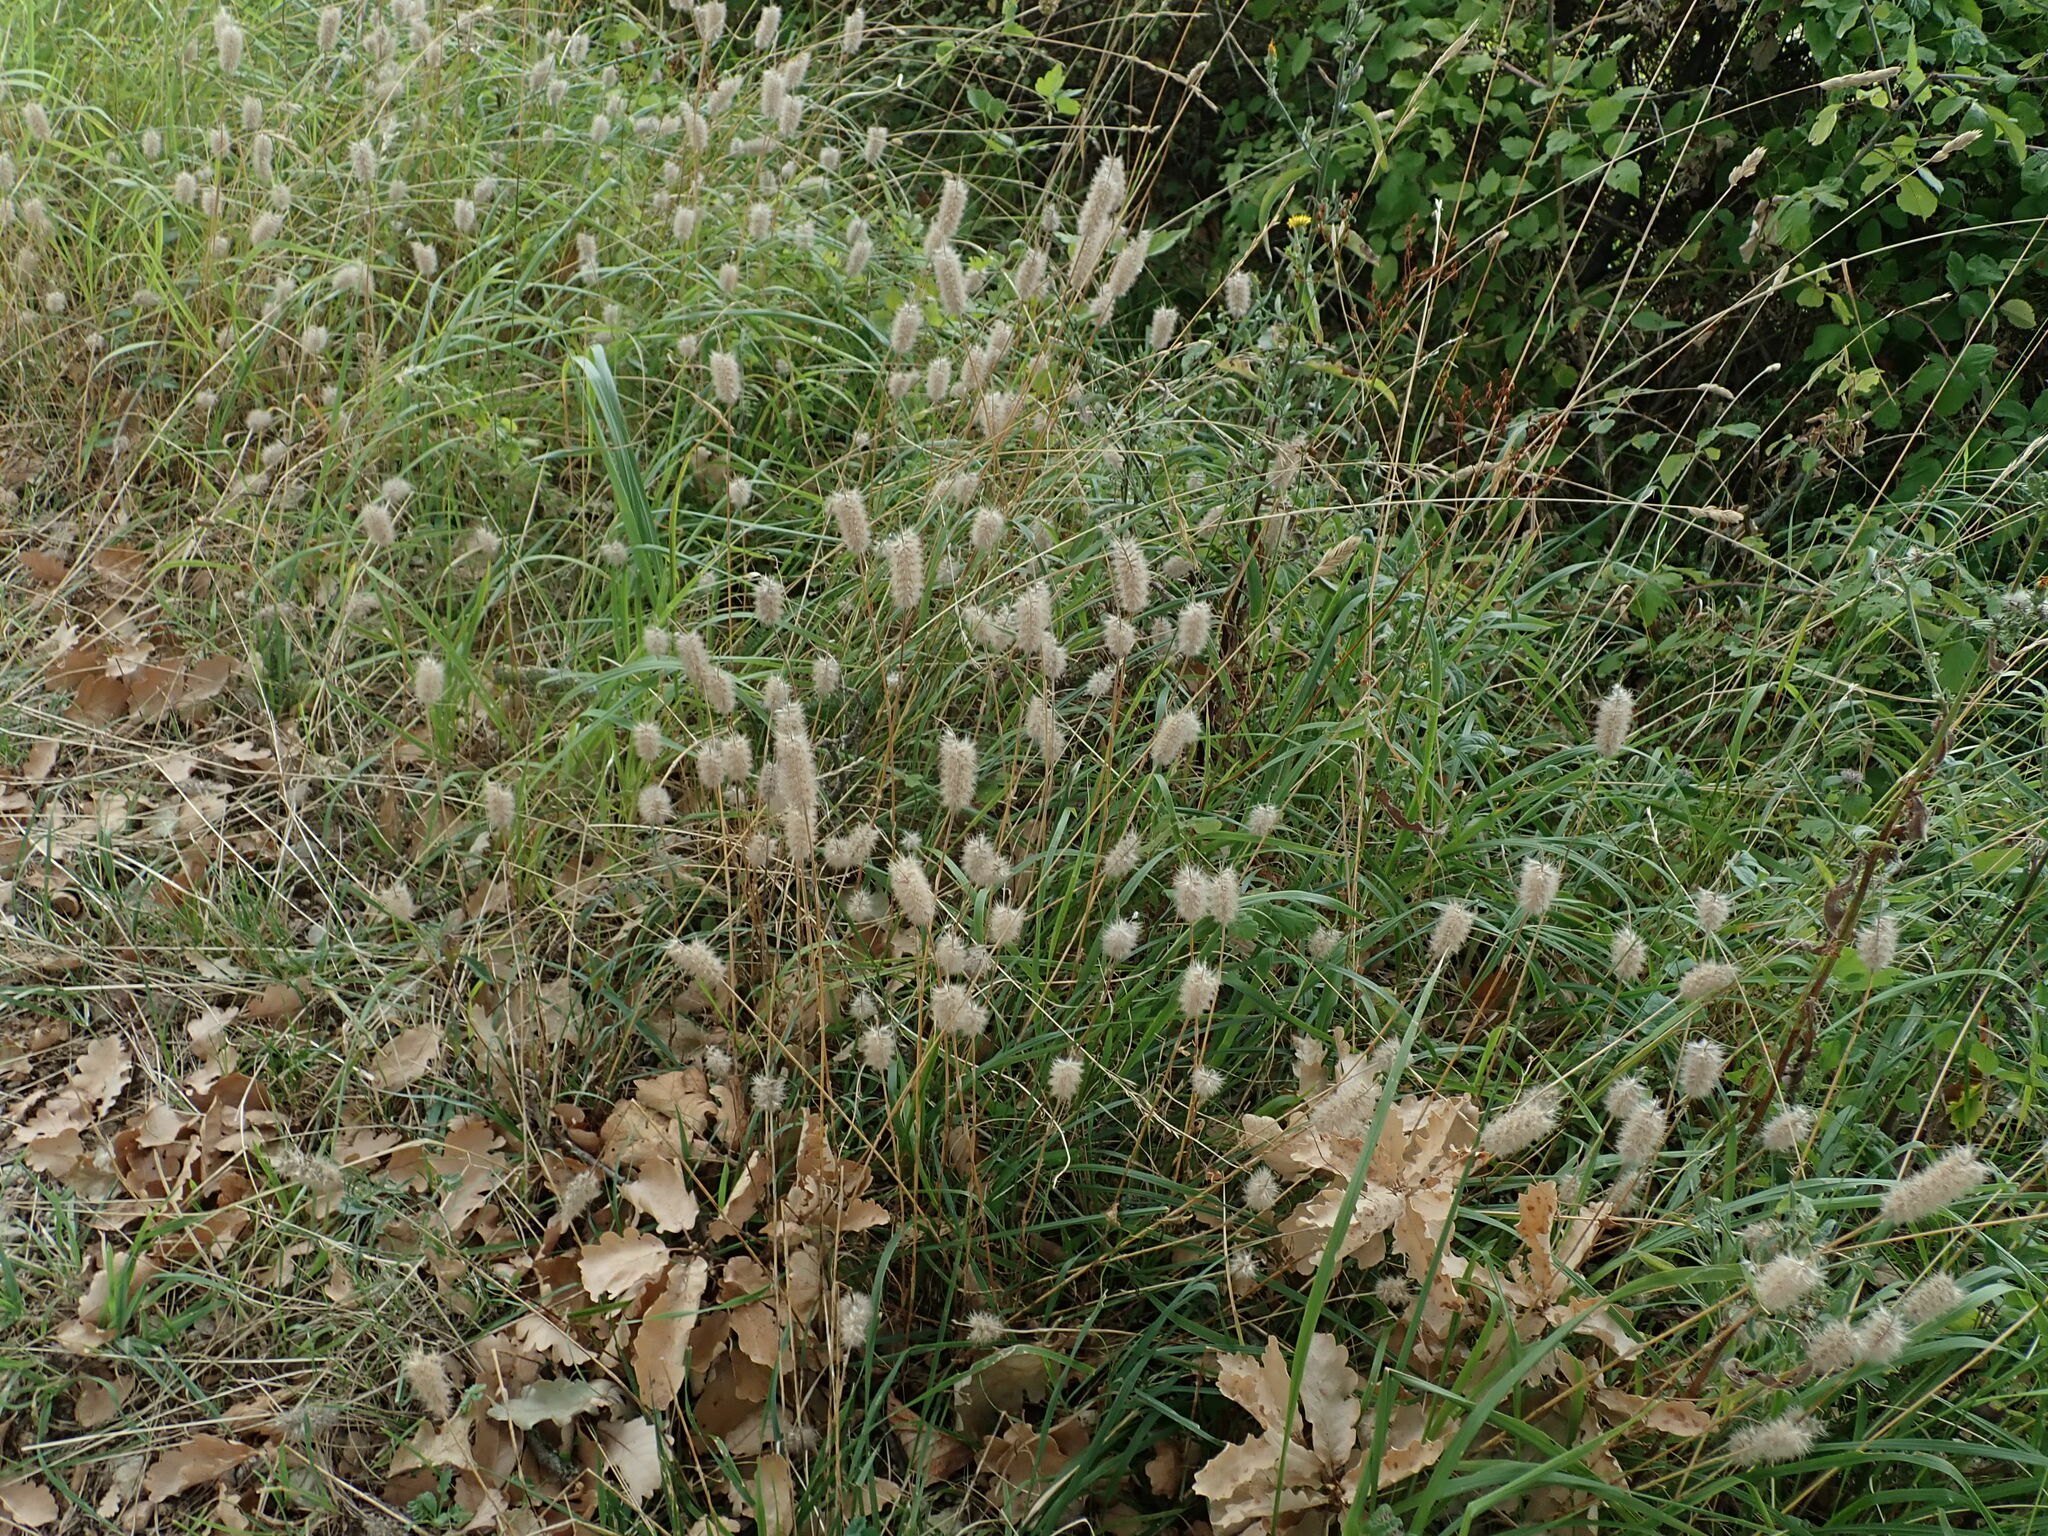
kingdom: Plantae
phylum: Tracheophyta
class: Magnoliopsida
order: Fabales
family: Fabaceae
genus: Trifolium
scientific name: Trifolium angustifolium
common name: Narrow clover
